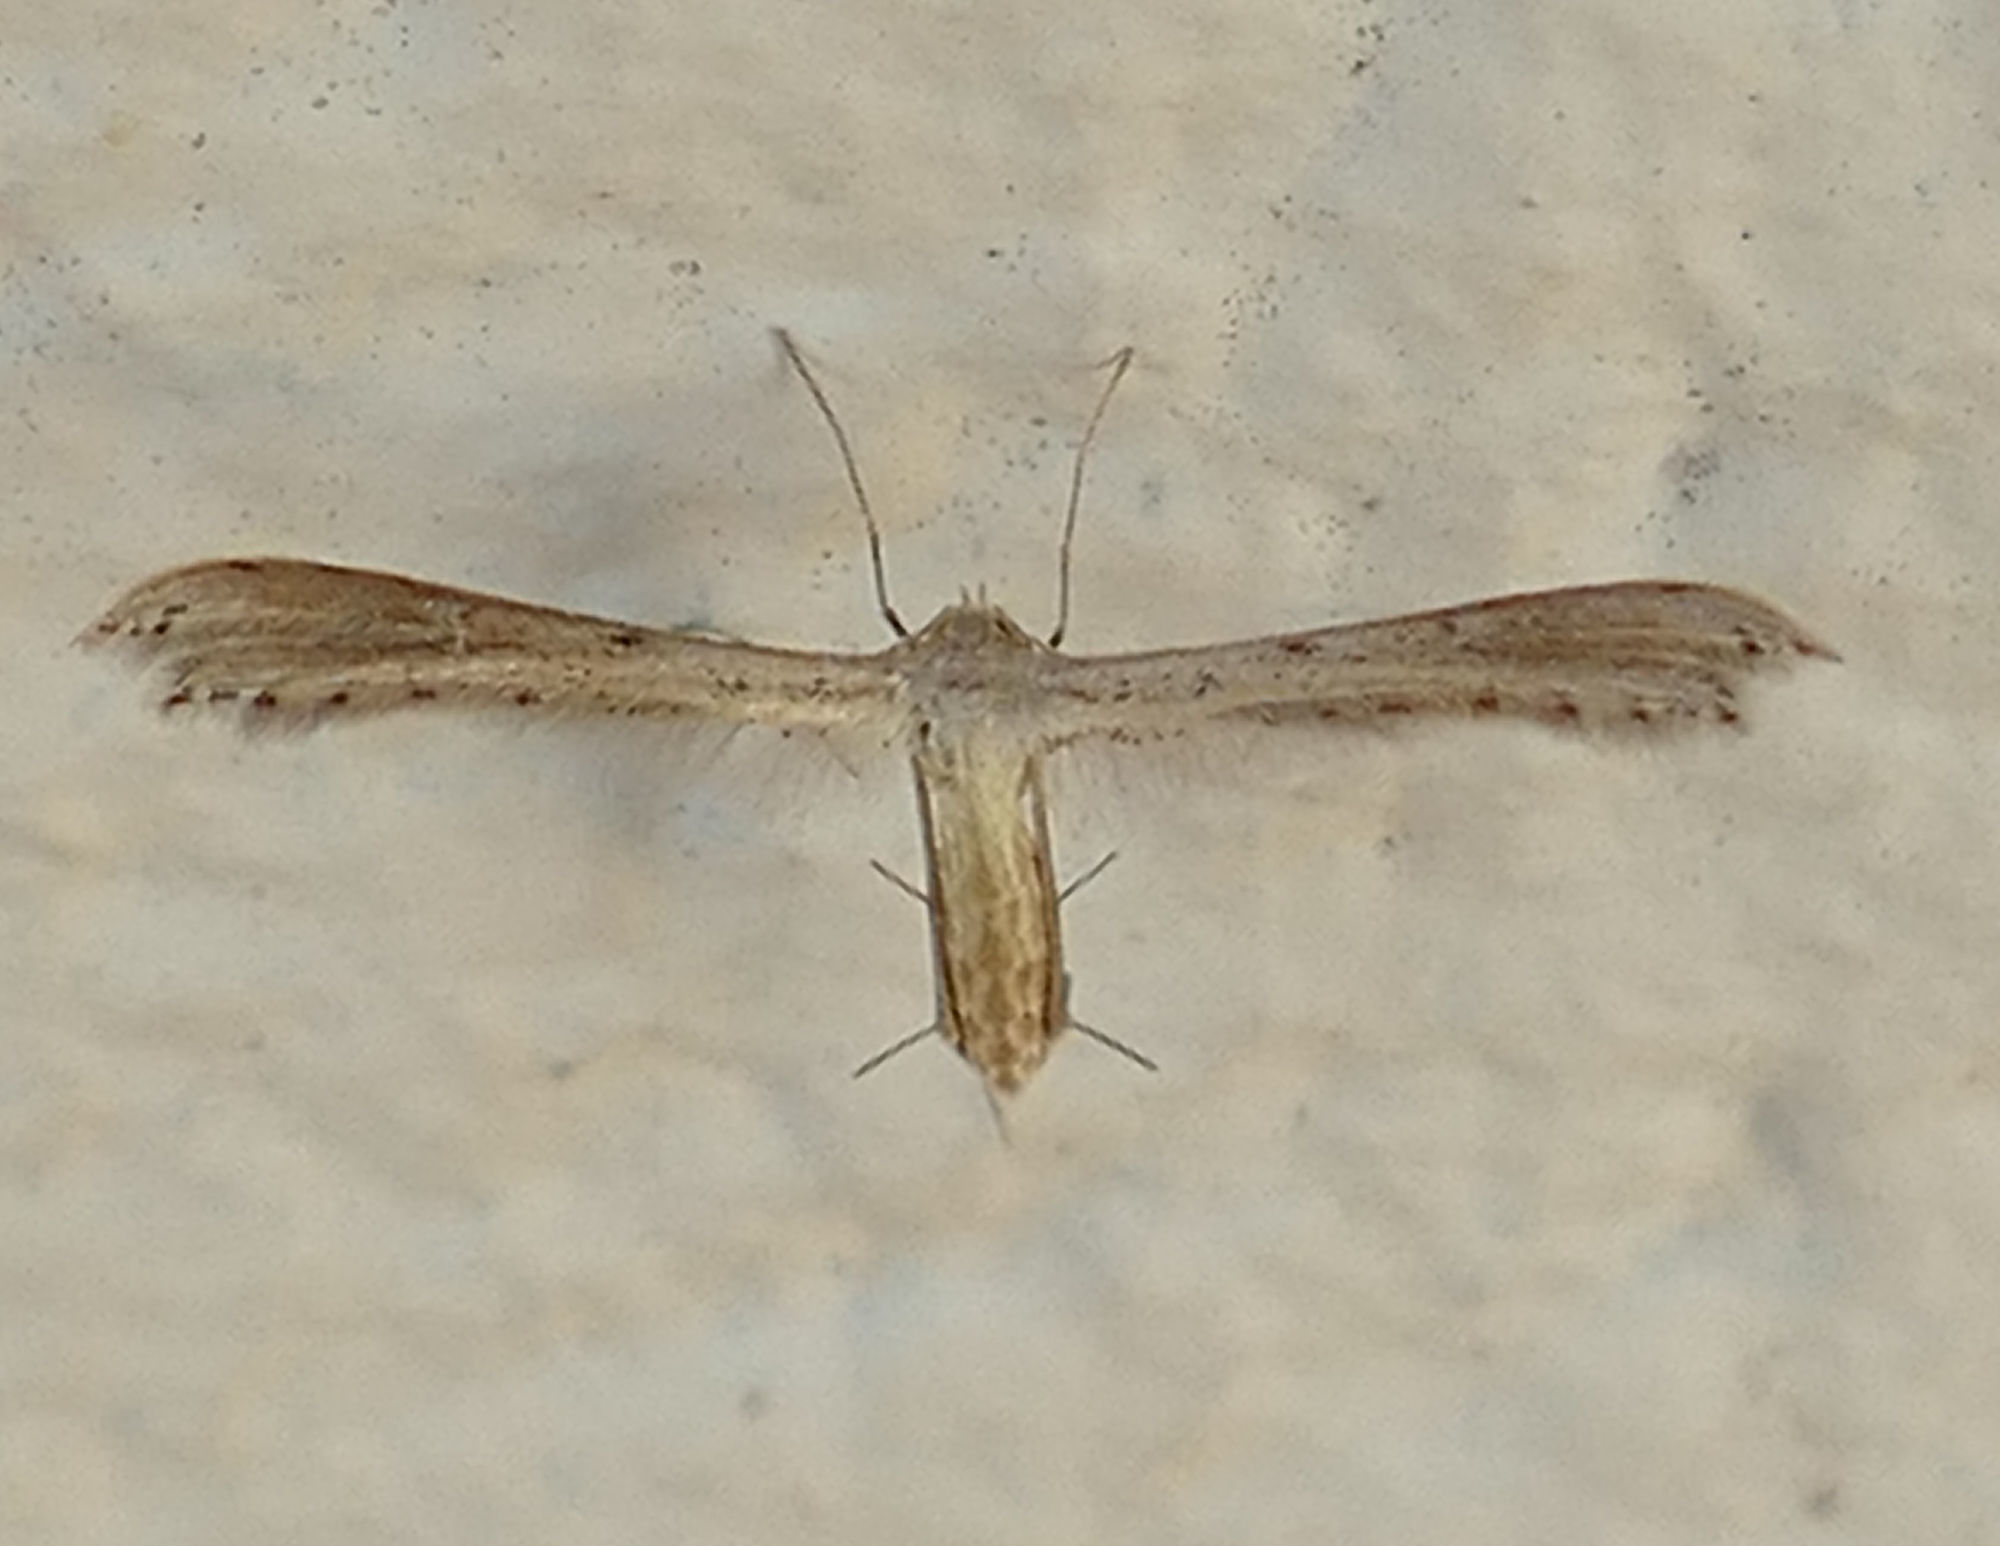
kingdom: Animalia
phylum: Arthropoda
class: Insecta
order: Lepidoptera
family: Pterophoridae
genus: Exelastis
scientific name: Exelastis montischristi
